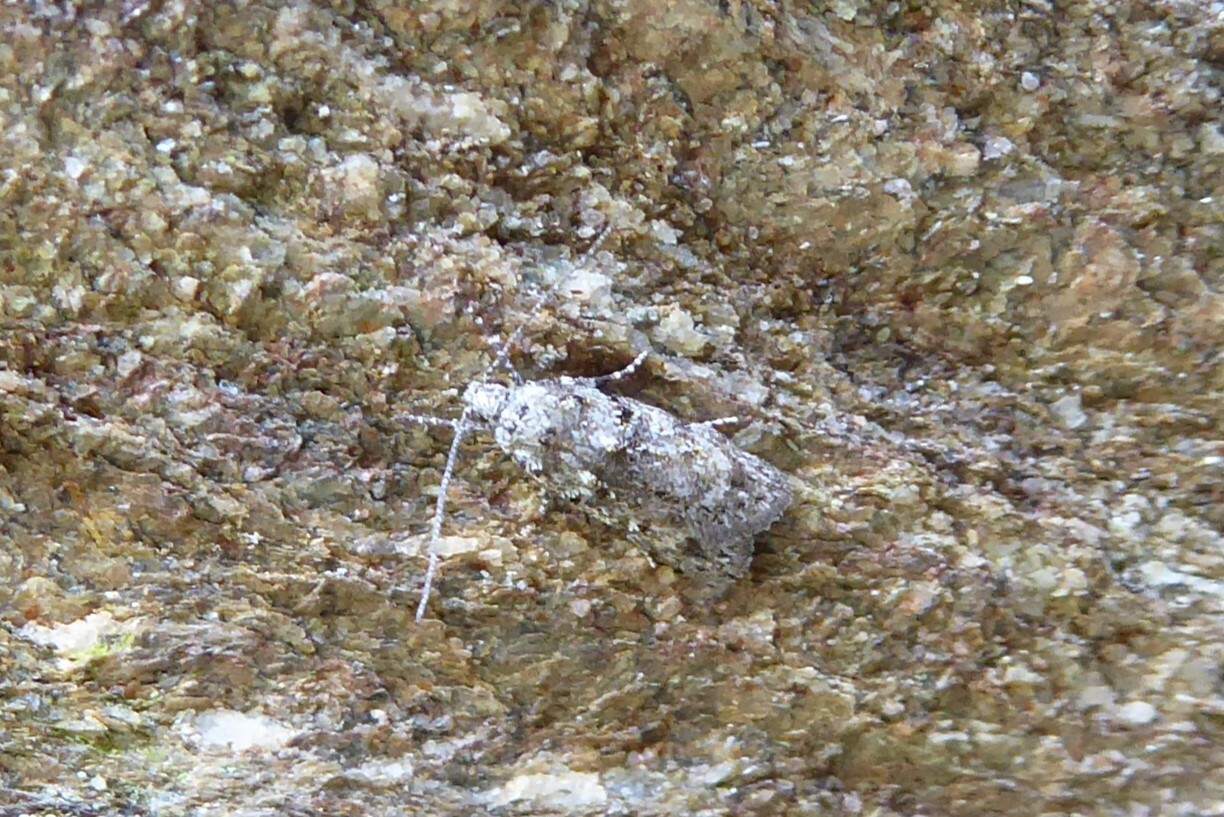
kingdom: Animalia
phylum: Arthropoda
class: Insecta
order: Lepidoptera
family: Oecophoridae
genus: Izatha
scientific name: Izatha gekkonella
